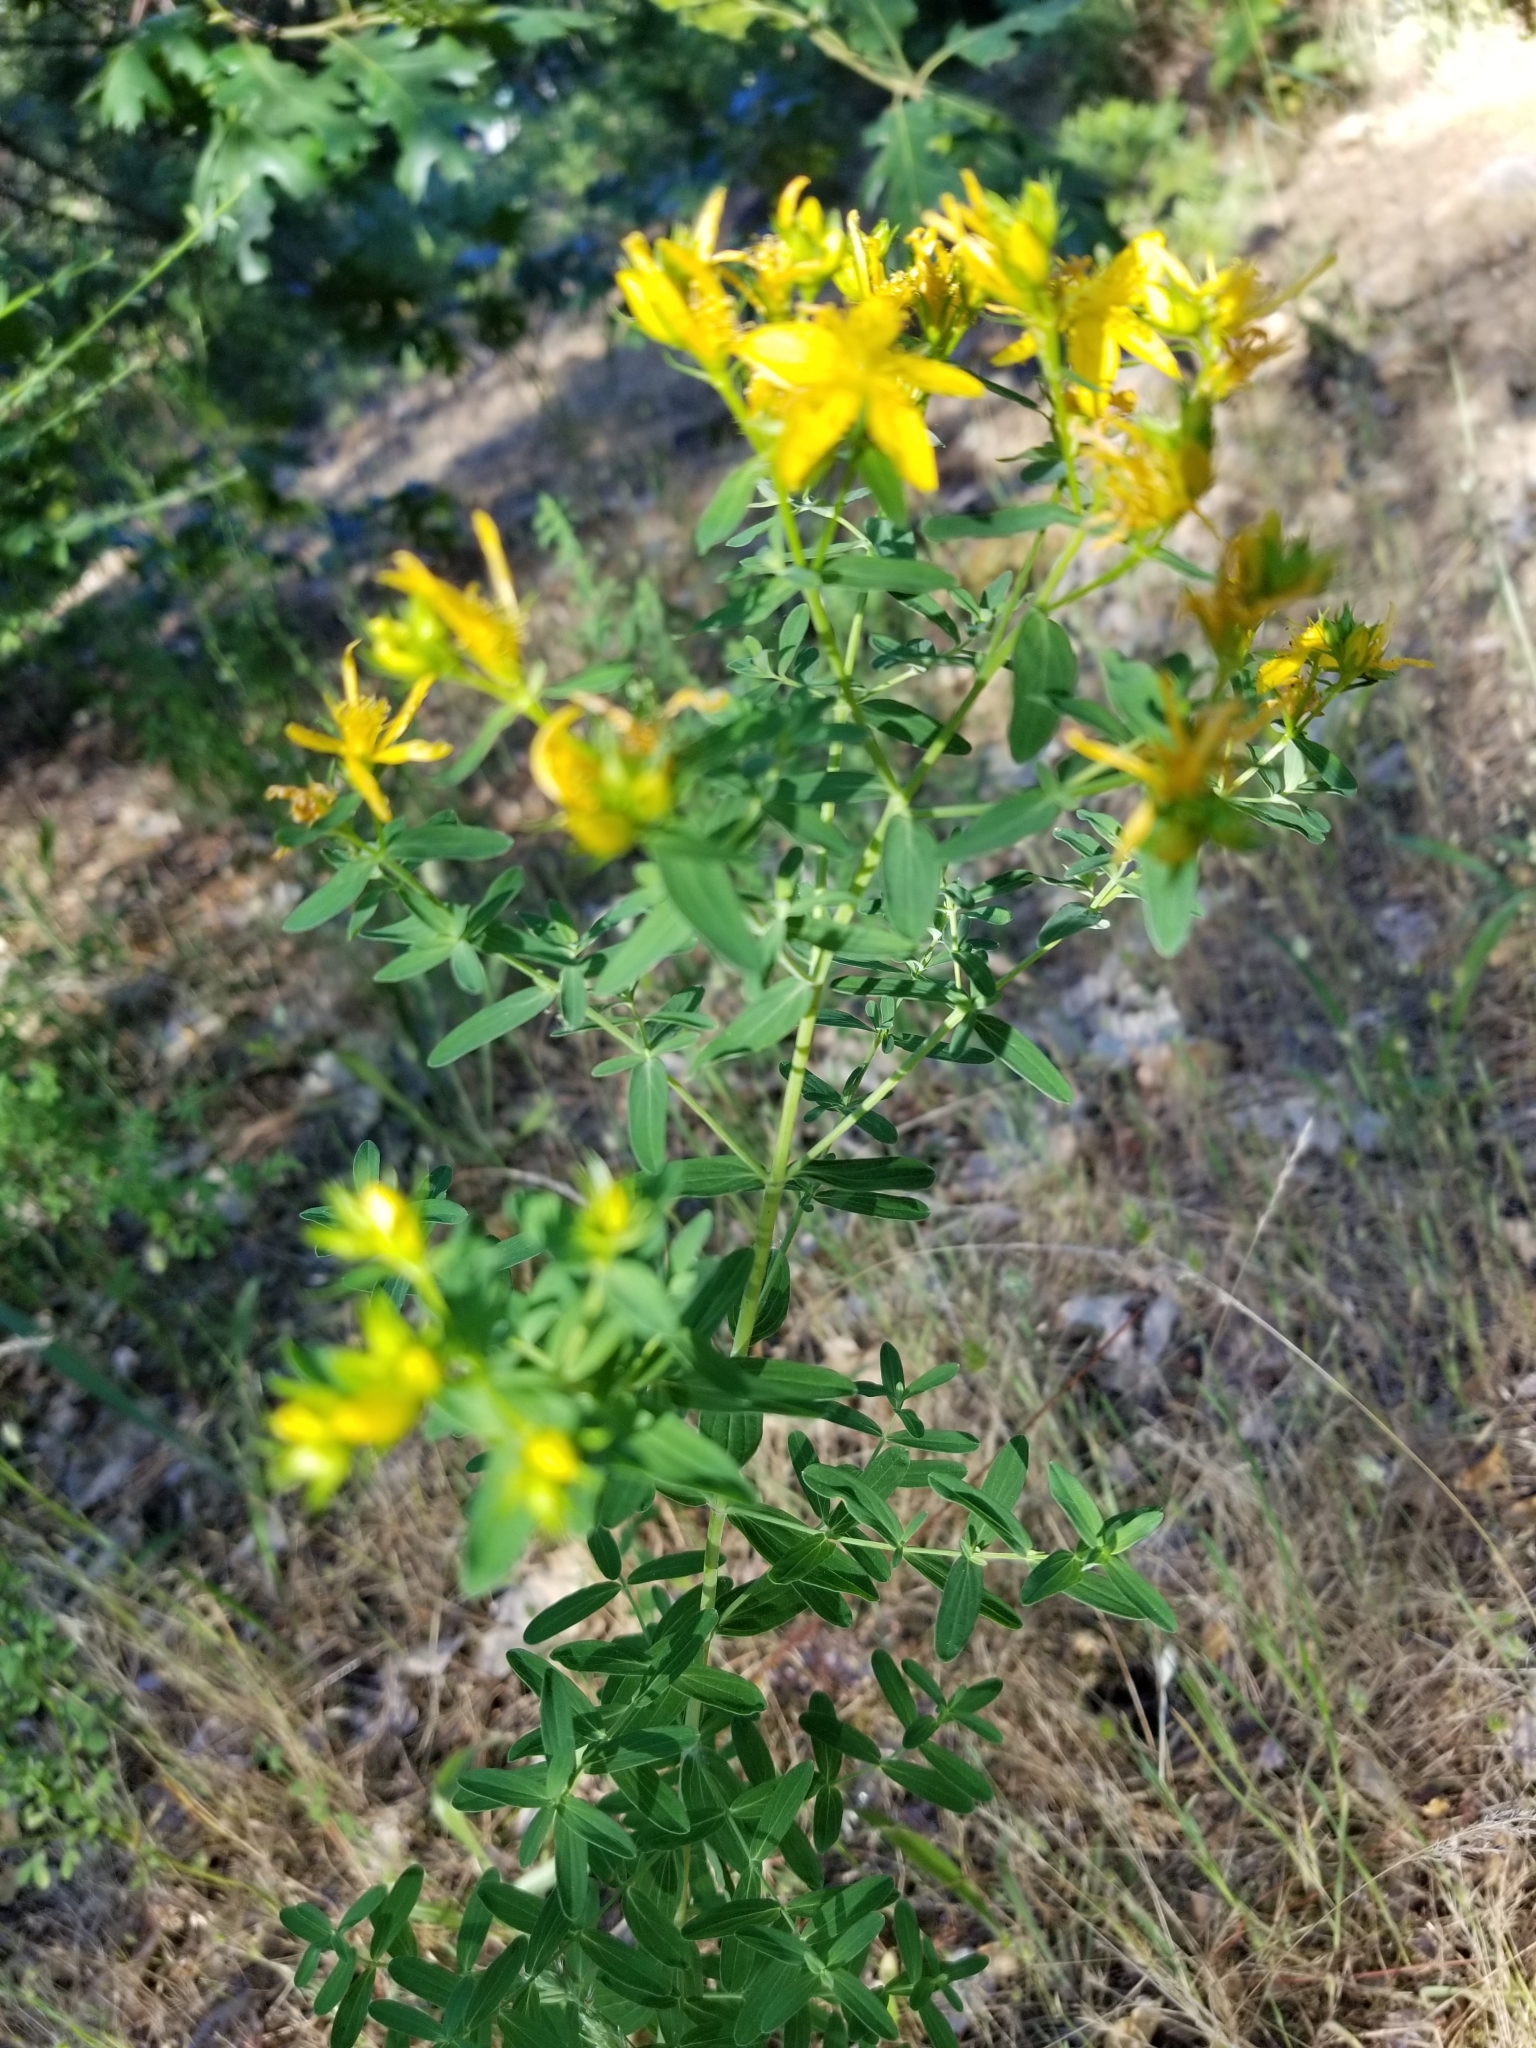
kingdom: Plantae
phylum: Tracheophyta
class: Magnoliopsida
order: Malpighiales
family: Hypericaceae
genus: Hypericum
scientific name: Hypericum perforatum
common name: Common st. johnswort
